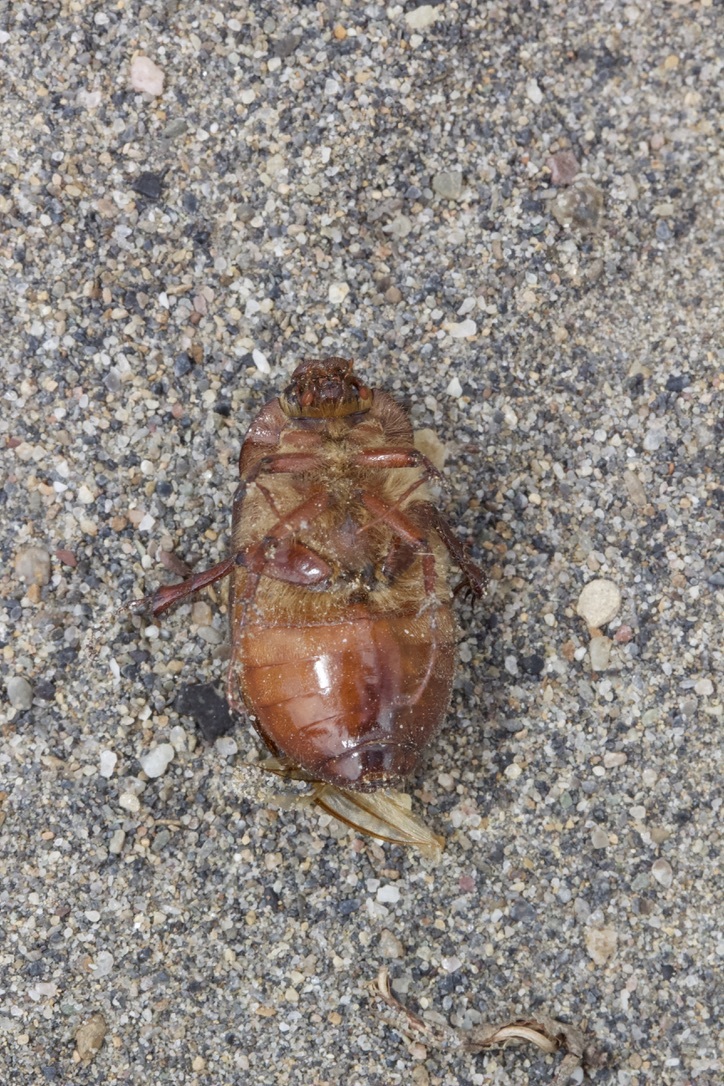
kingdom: Animalia
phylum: Arthropoda
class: Insecta
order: Coleoptera
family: Scarabaeidae
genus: Phyllophaga
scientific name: Phyllophaga anxia
